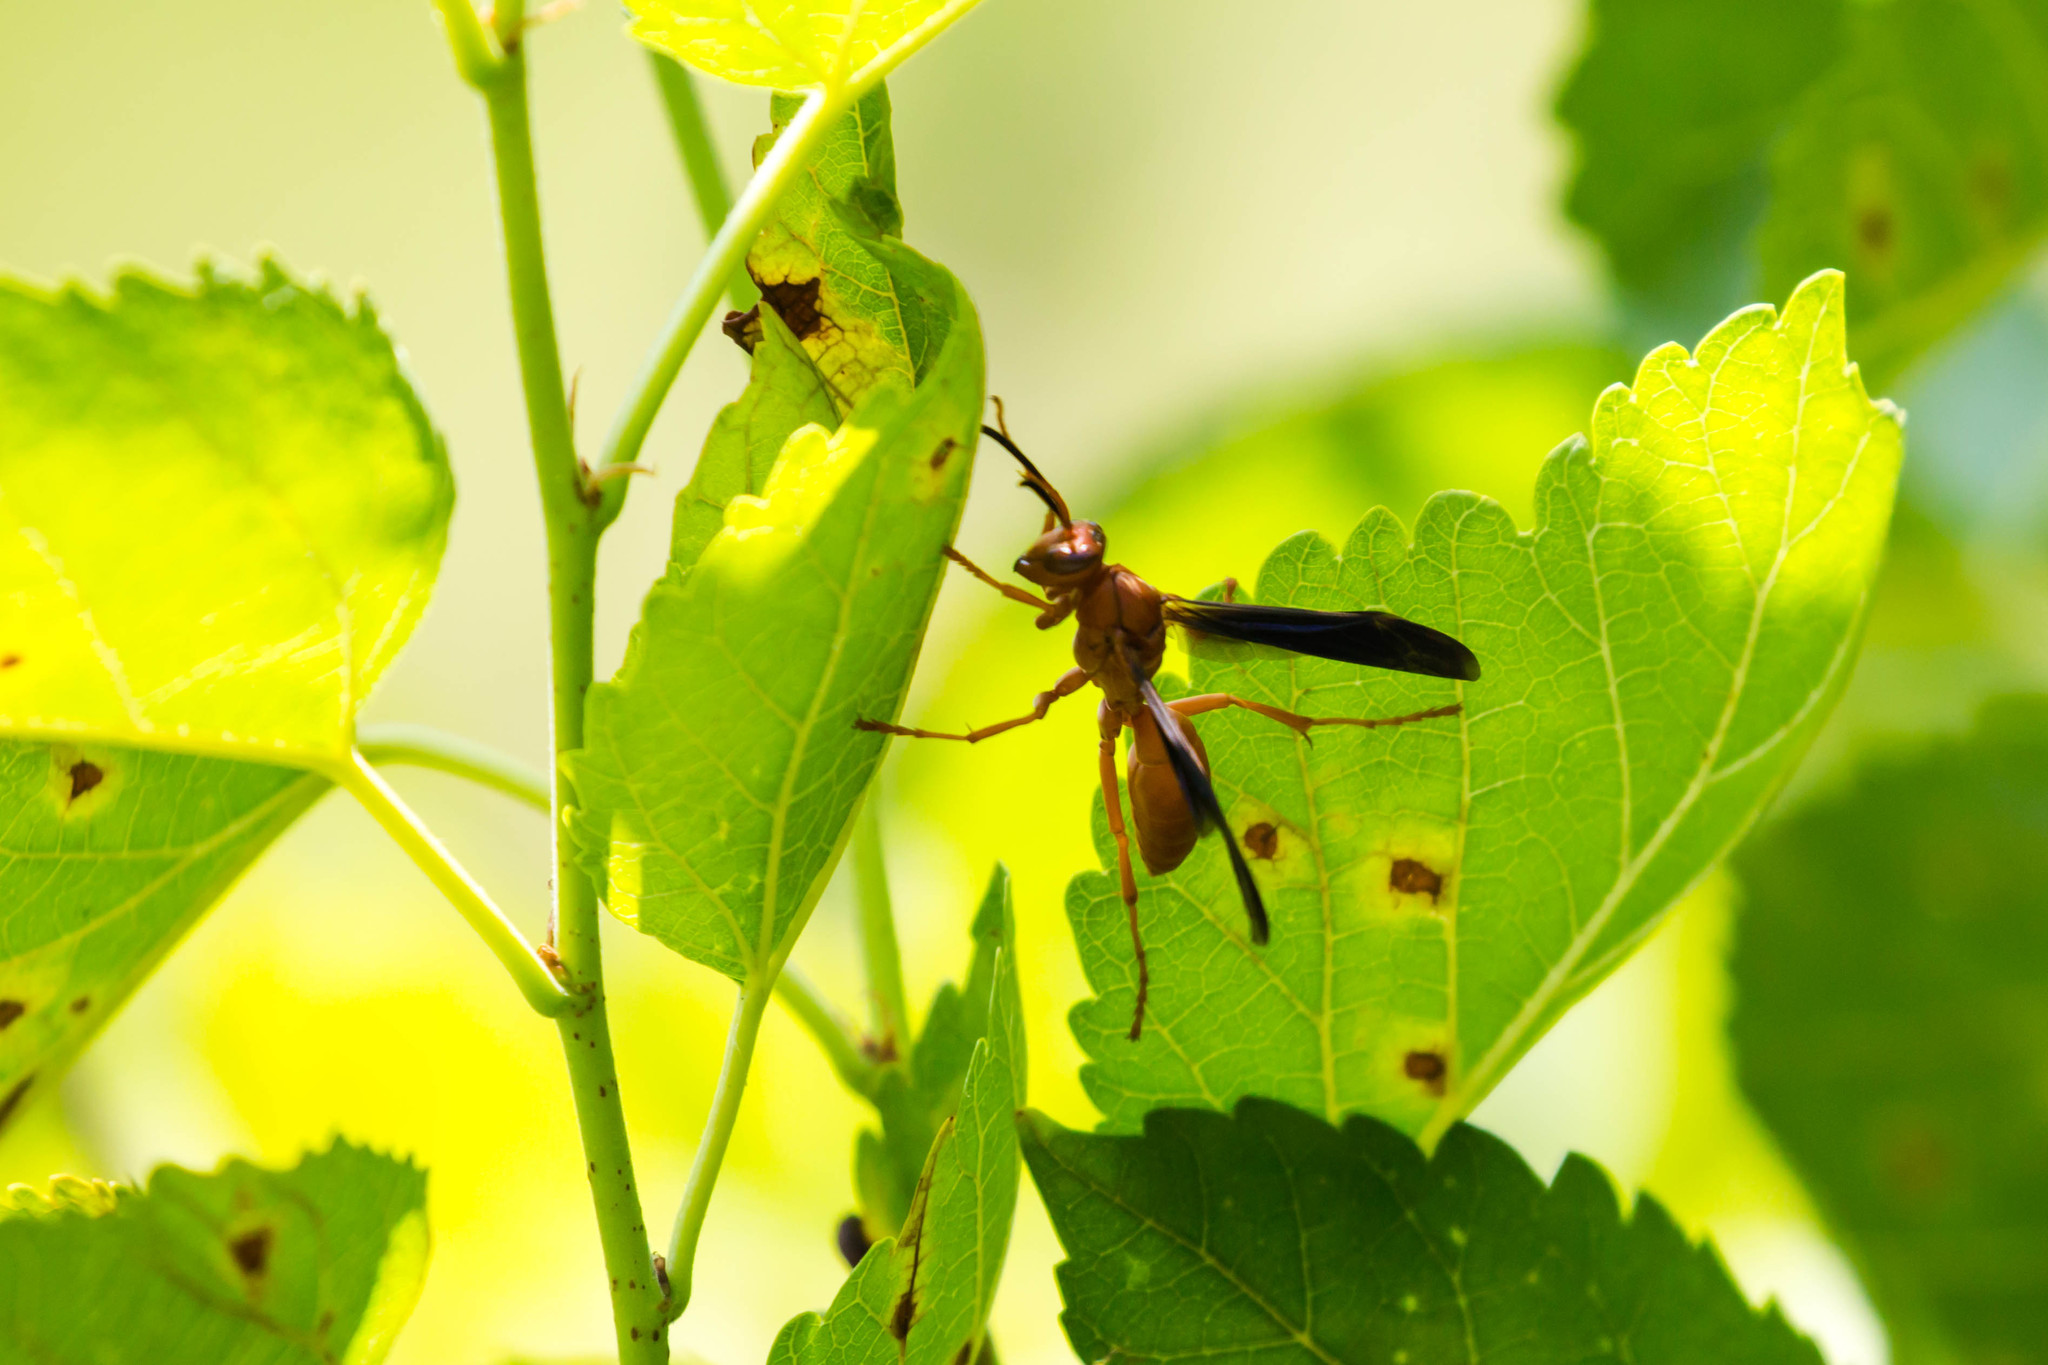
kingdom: Animalia
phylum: Arthropoda
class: Insecta
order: Hymenoptera
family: Eumenidae
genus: Polistes
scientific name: Polistes carolina
